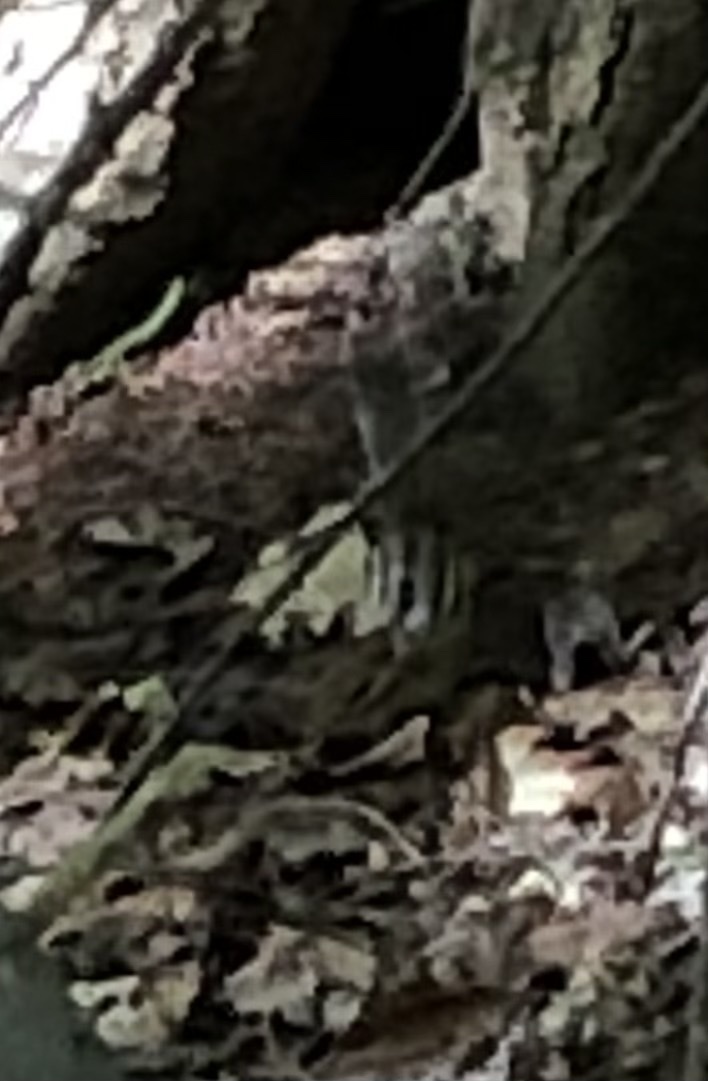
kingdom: Animalia
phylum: Chordata
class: Mammalia
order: Rodentia
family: Sciuridae
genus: Tamias
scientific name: Tamias striatus
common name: Eastern chipmunk
